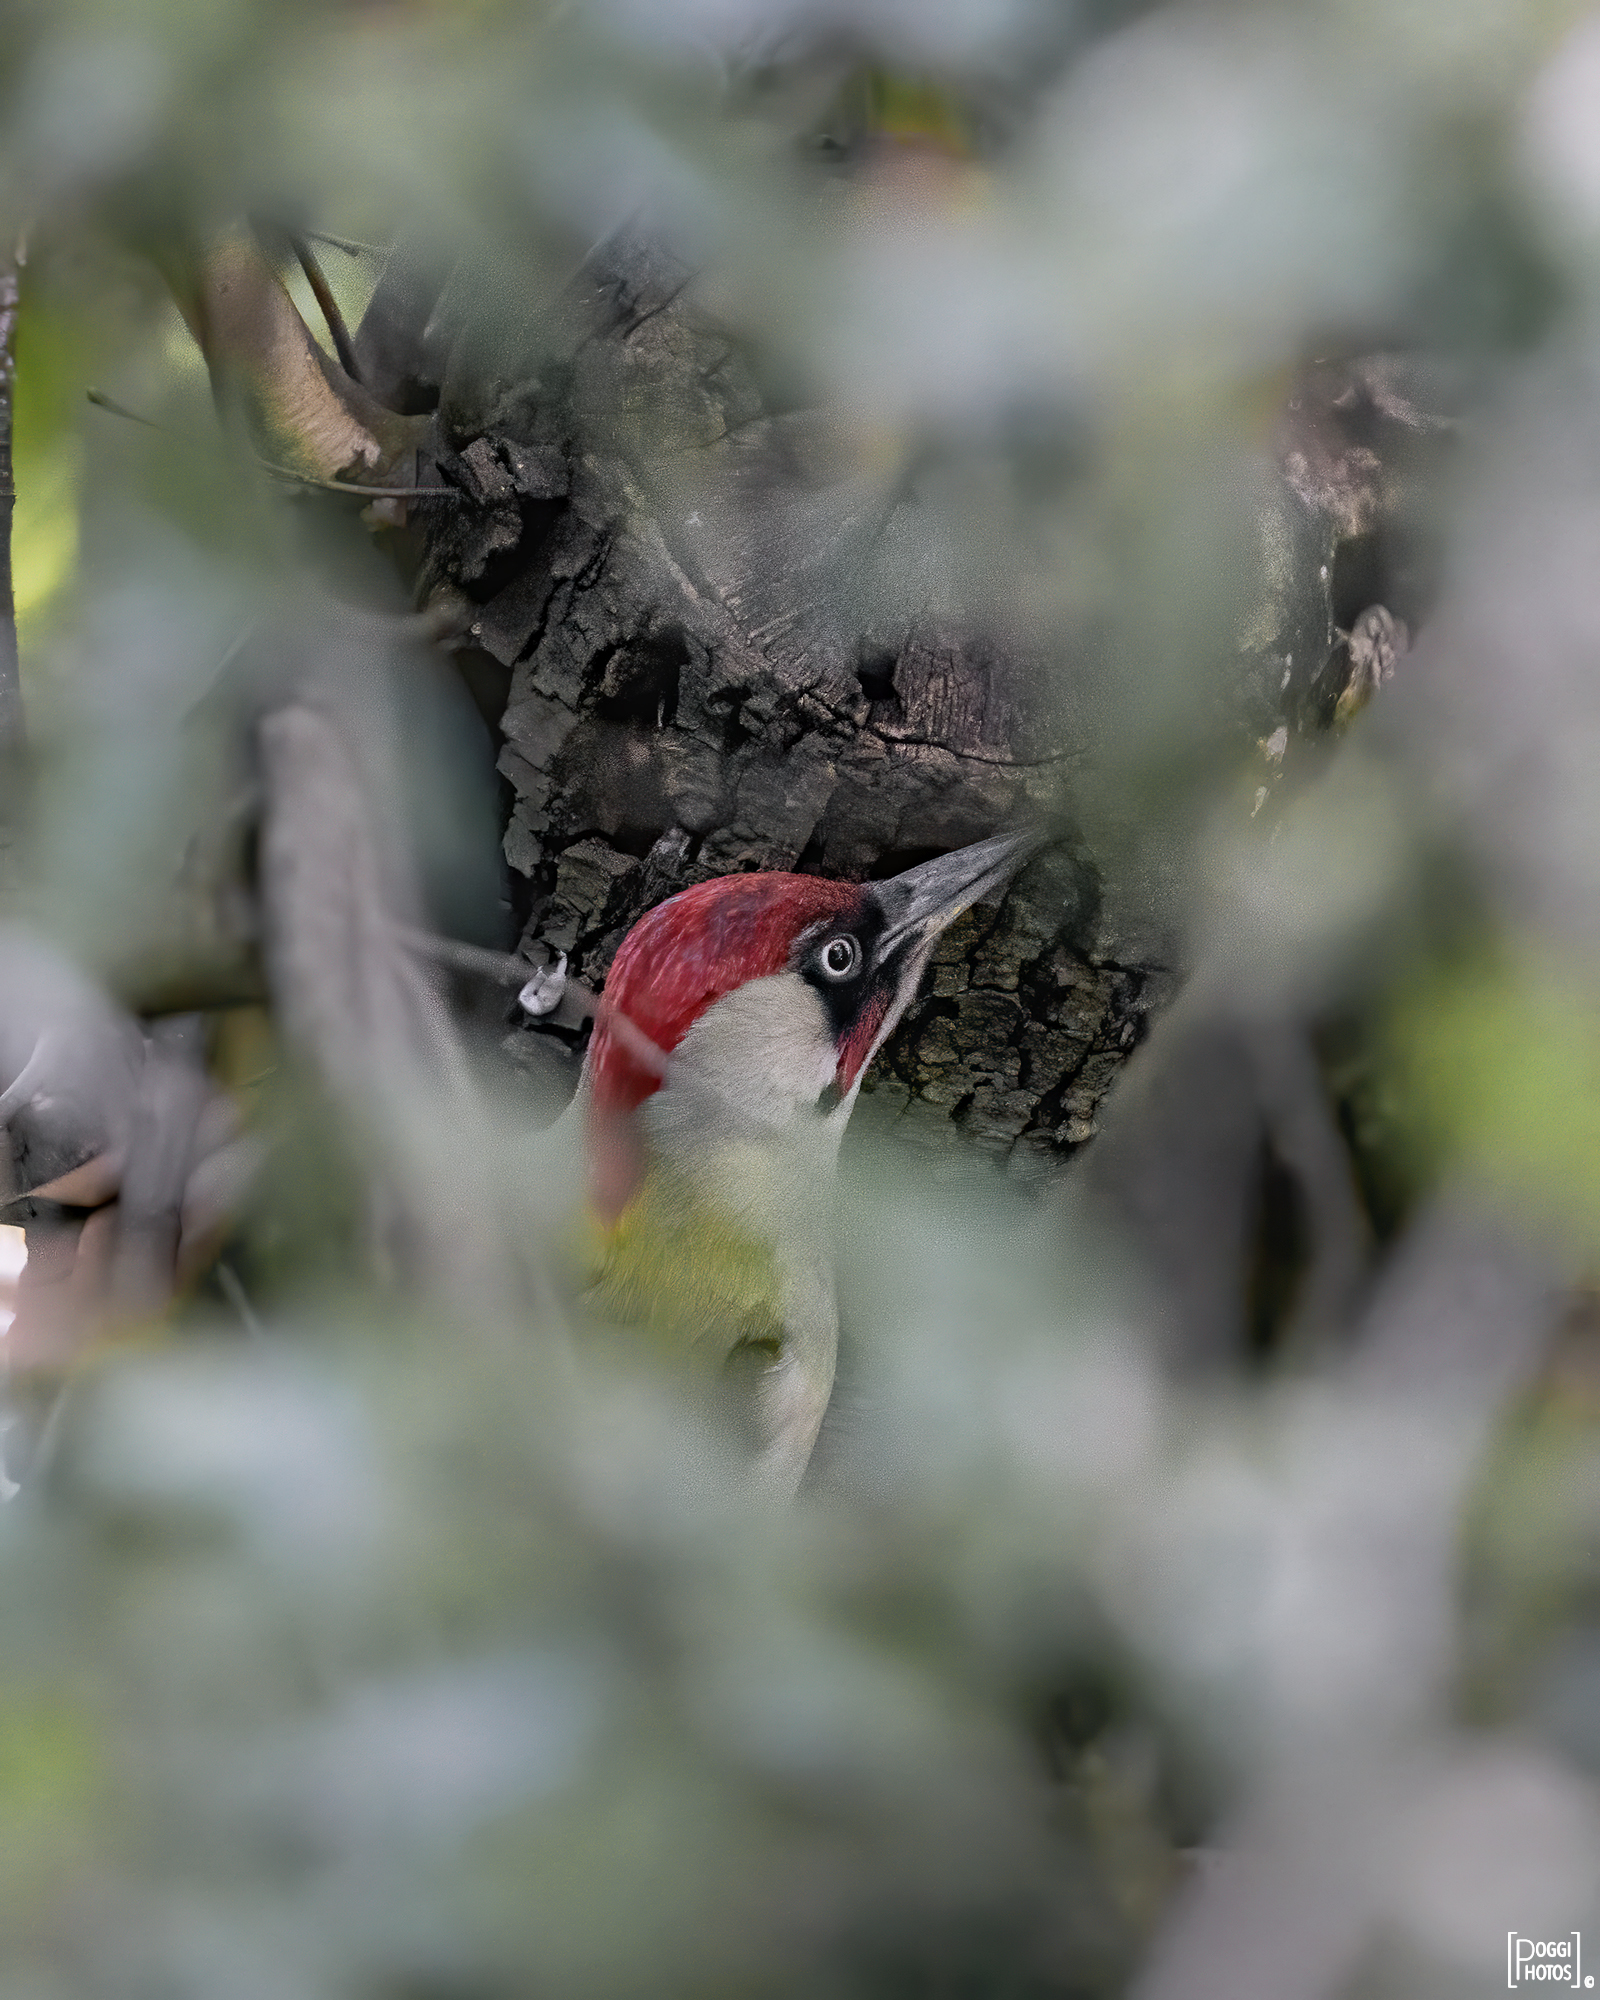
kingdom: Animalia
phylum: Chordata
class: Aves
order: Piciformes
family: Picidae
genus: Picus
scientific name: Picus viridis
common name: European green woodpecker
